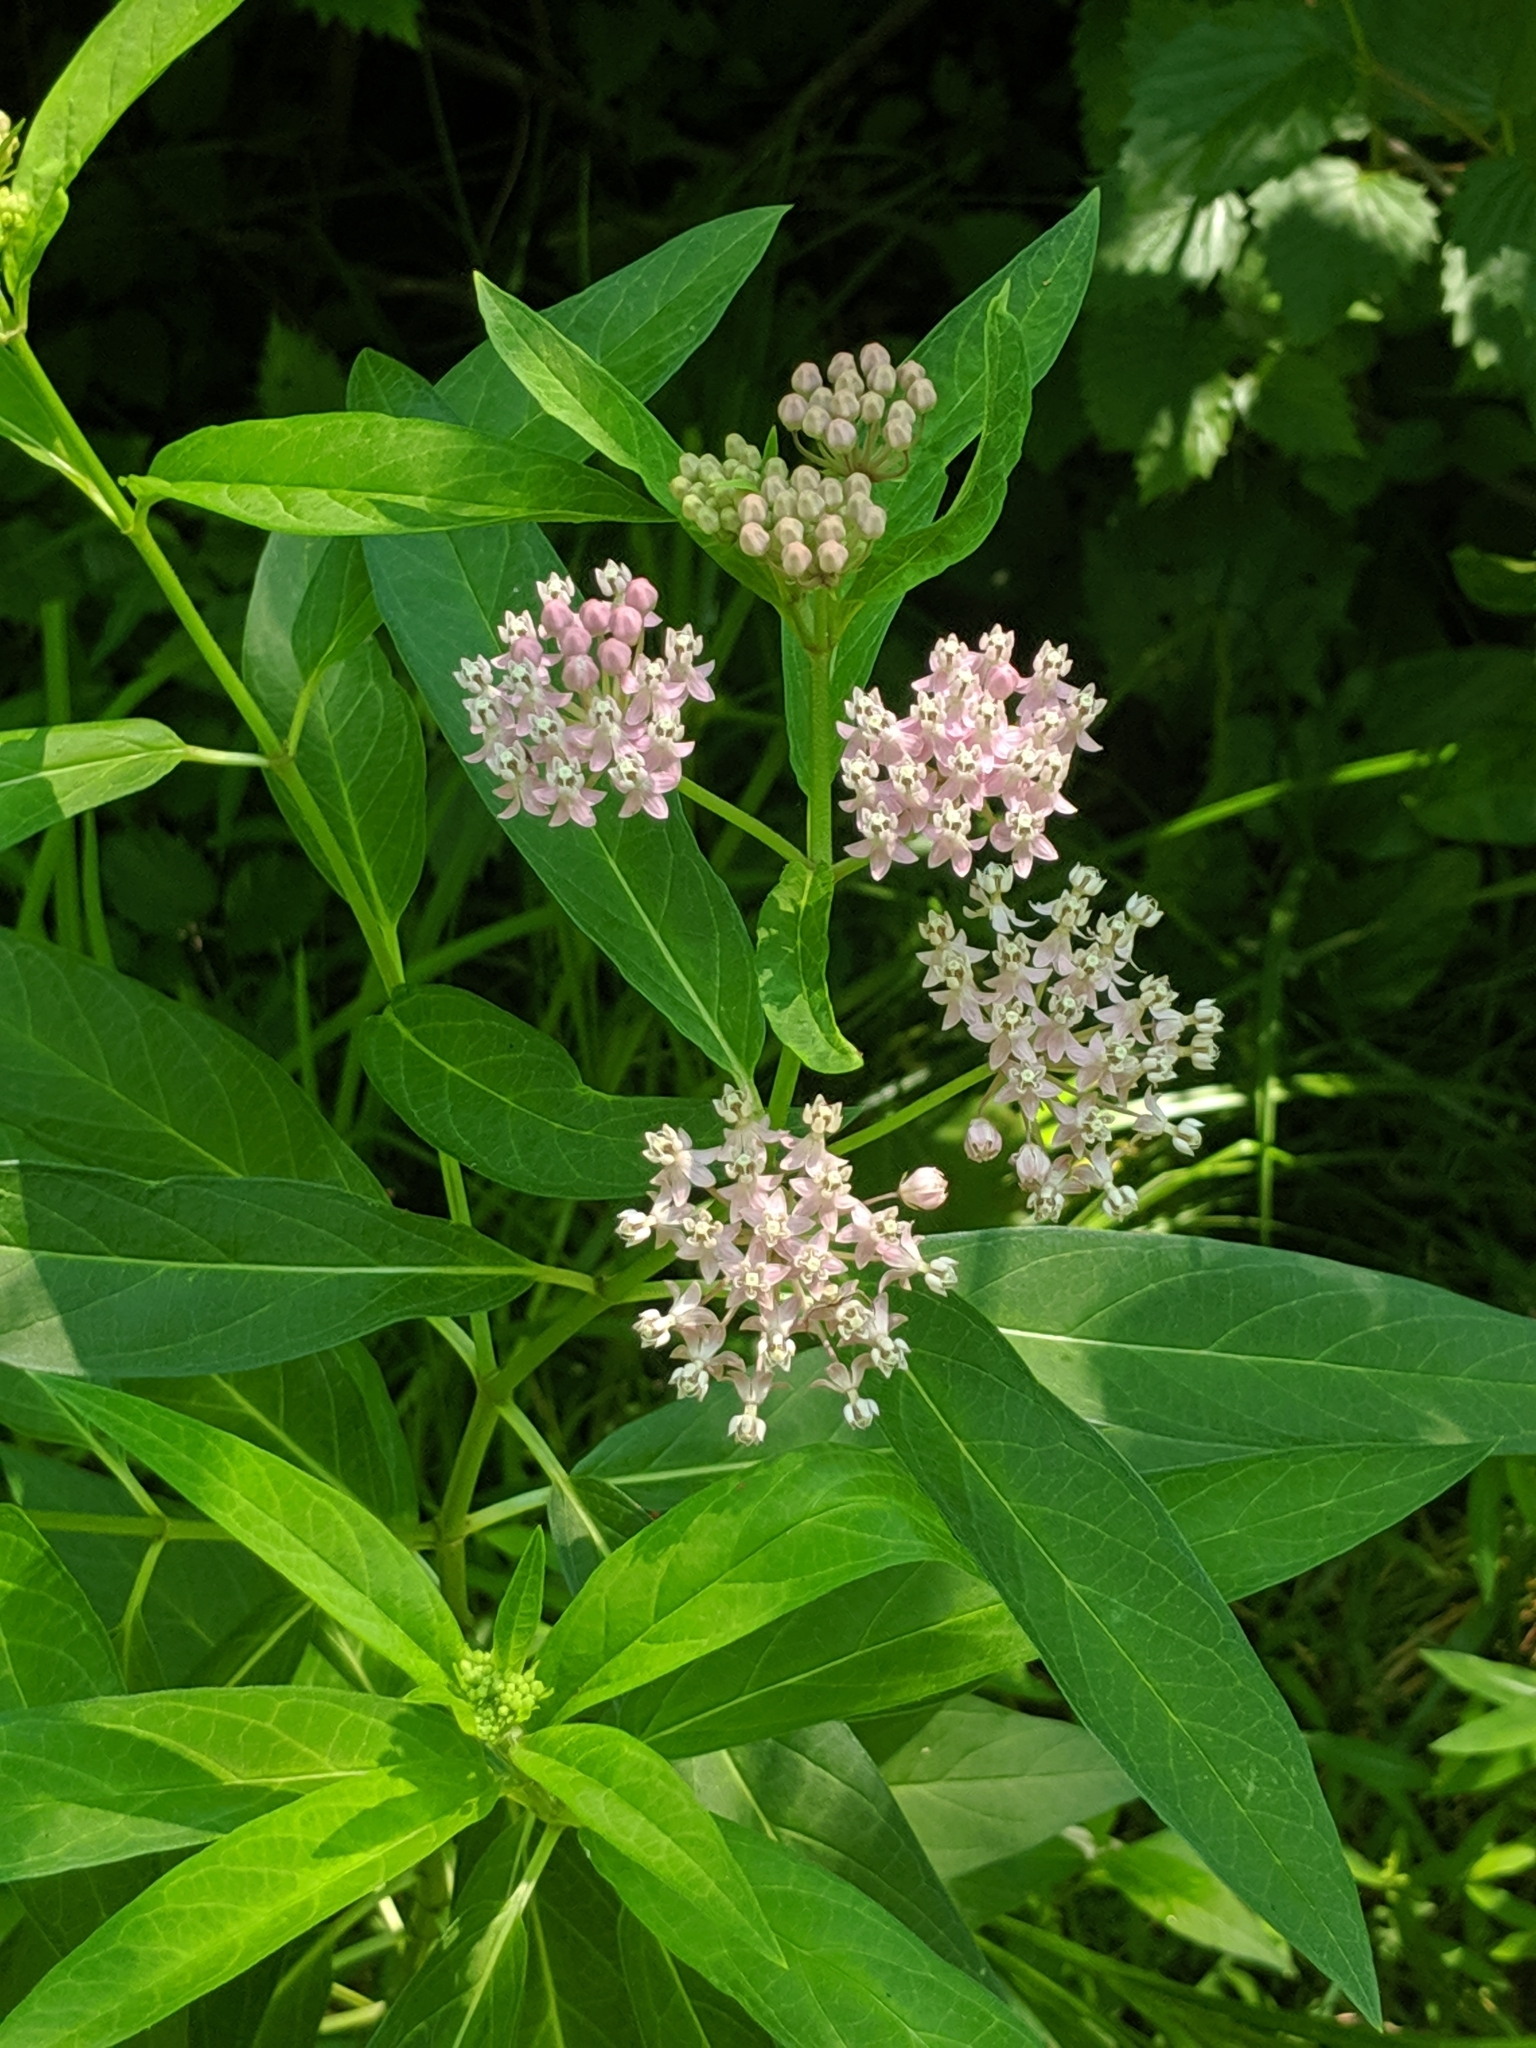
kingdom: Plantae
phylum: Tracheophyta
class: Magnoliopsida
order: Gentianales
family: Apocynaceae
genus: Asclepias
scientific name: Asclepias incarnata
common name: Swamp milkweed
